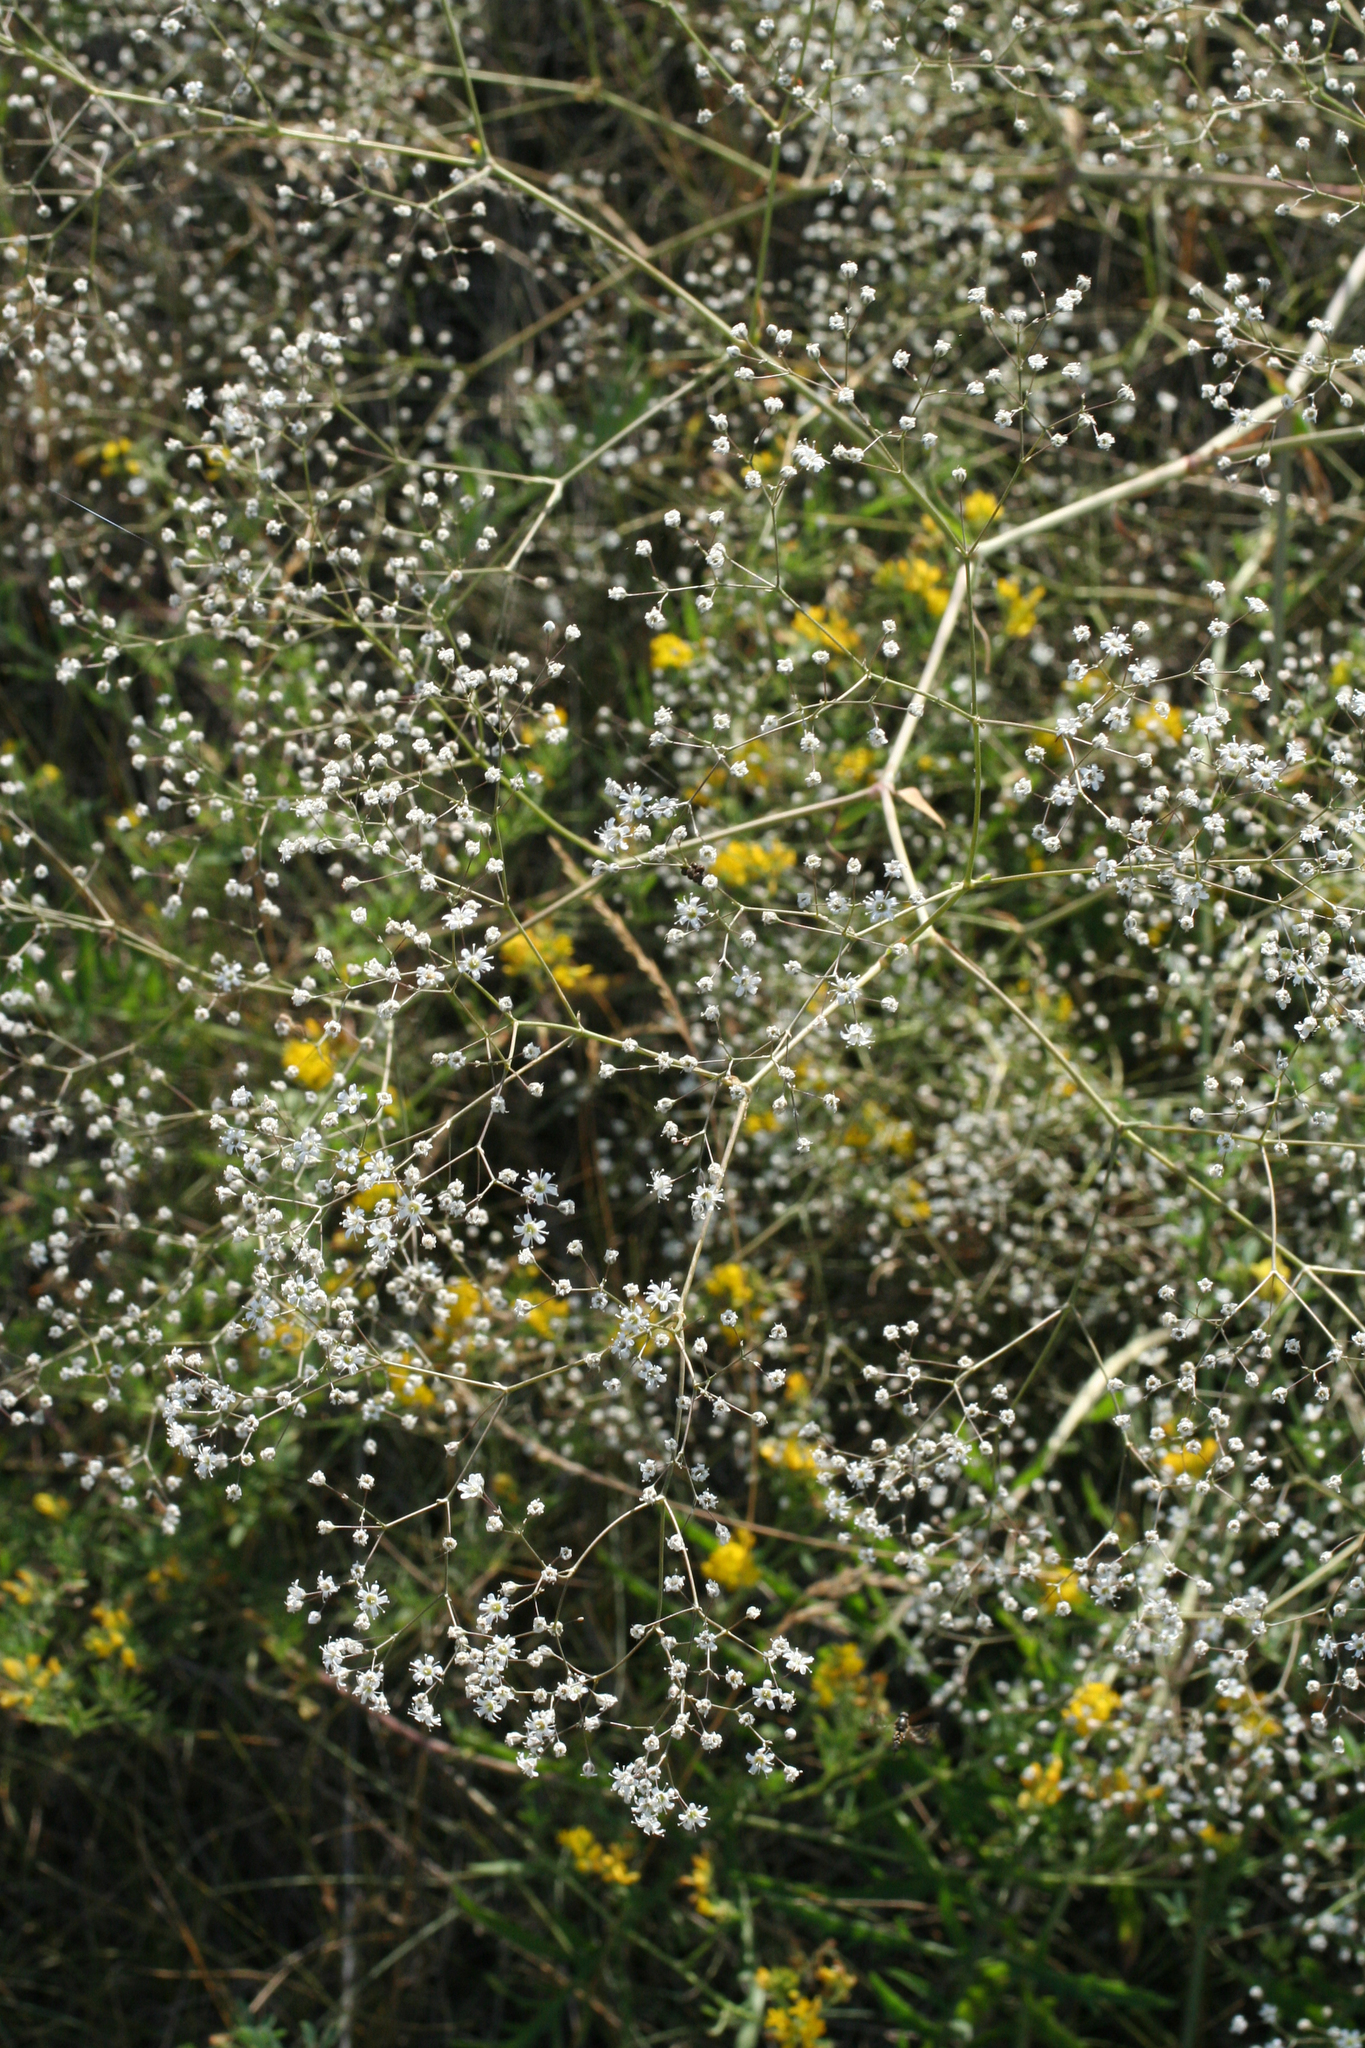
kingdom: Plantae
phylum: Tracheophyta
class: Magnoliopsida
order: Caryophyllales
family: Caryophyllaceae
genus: Gypsophila
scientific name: Gypsophila paniculata
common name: Baby's-breath
